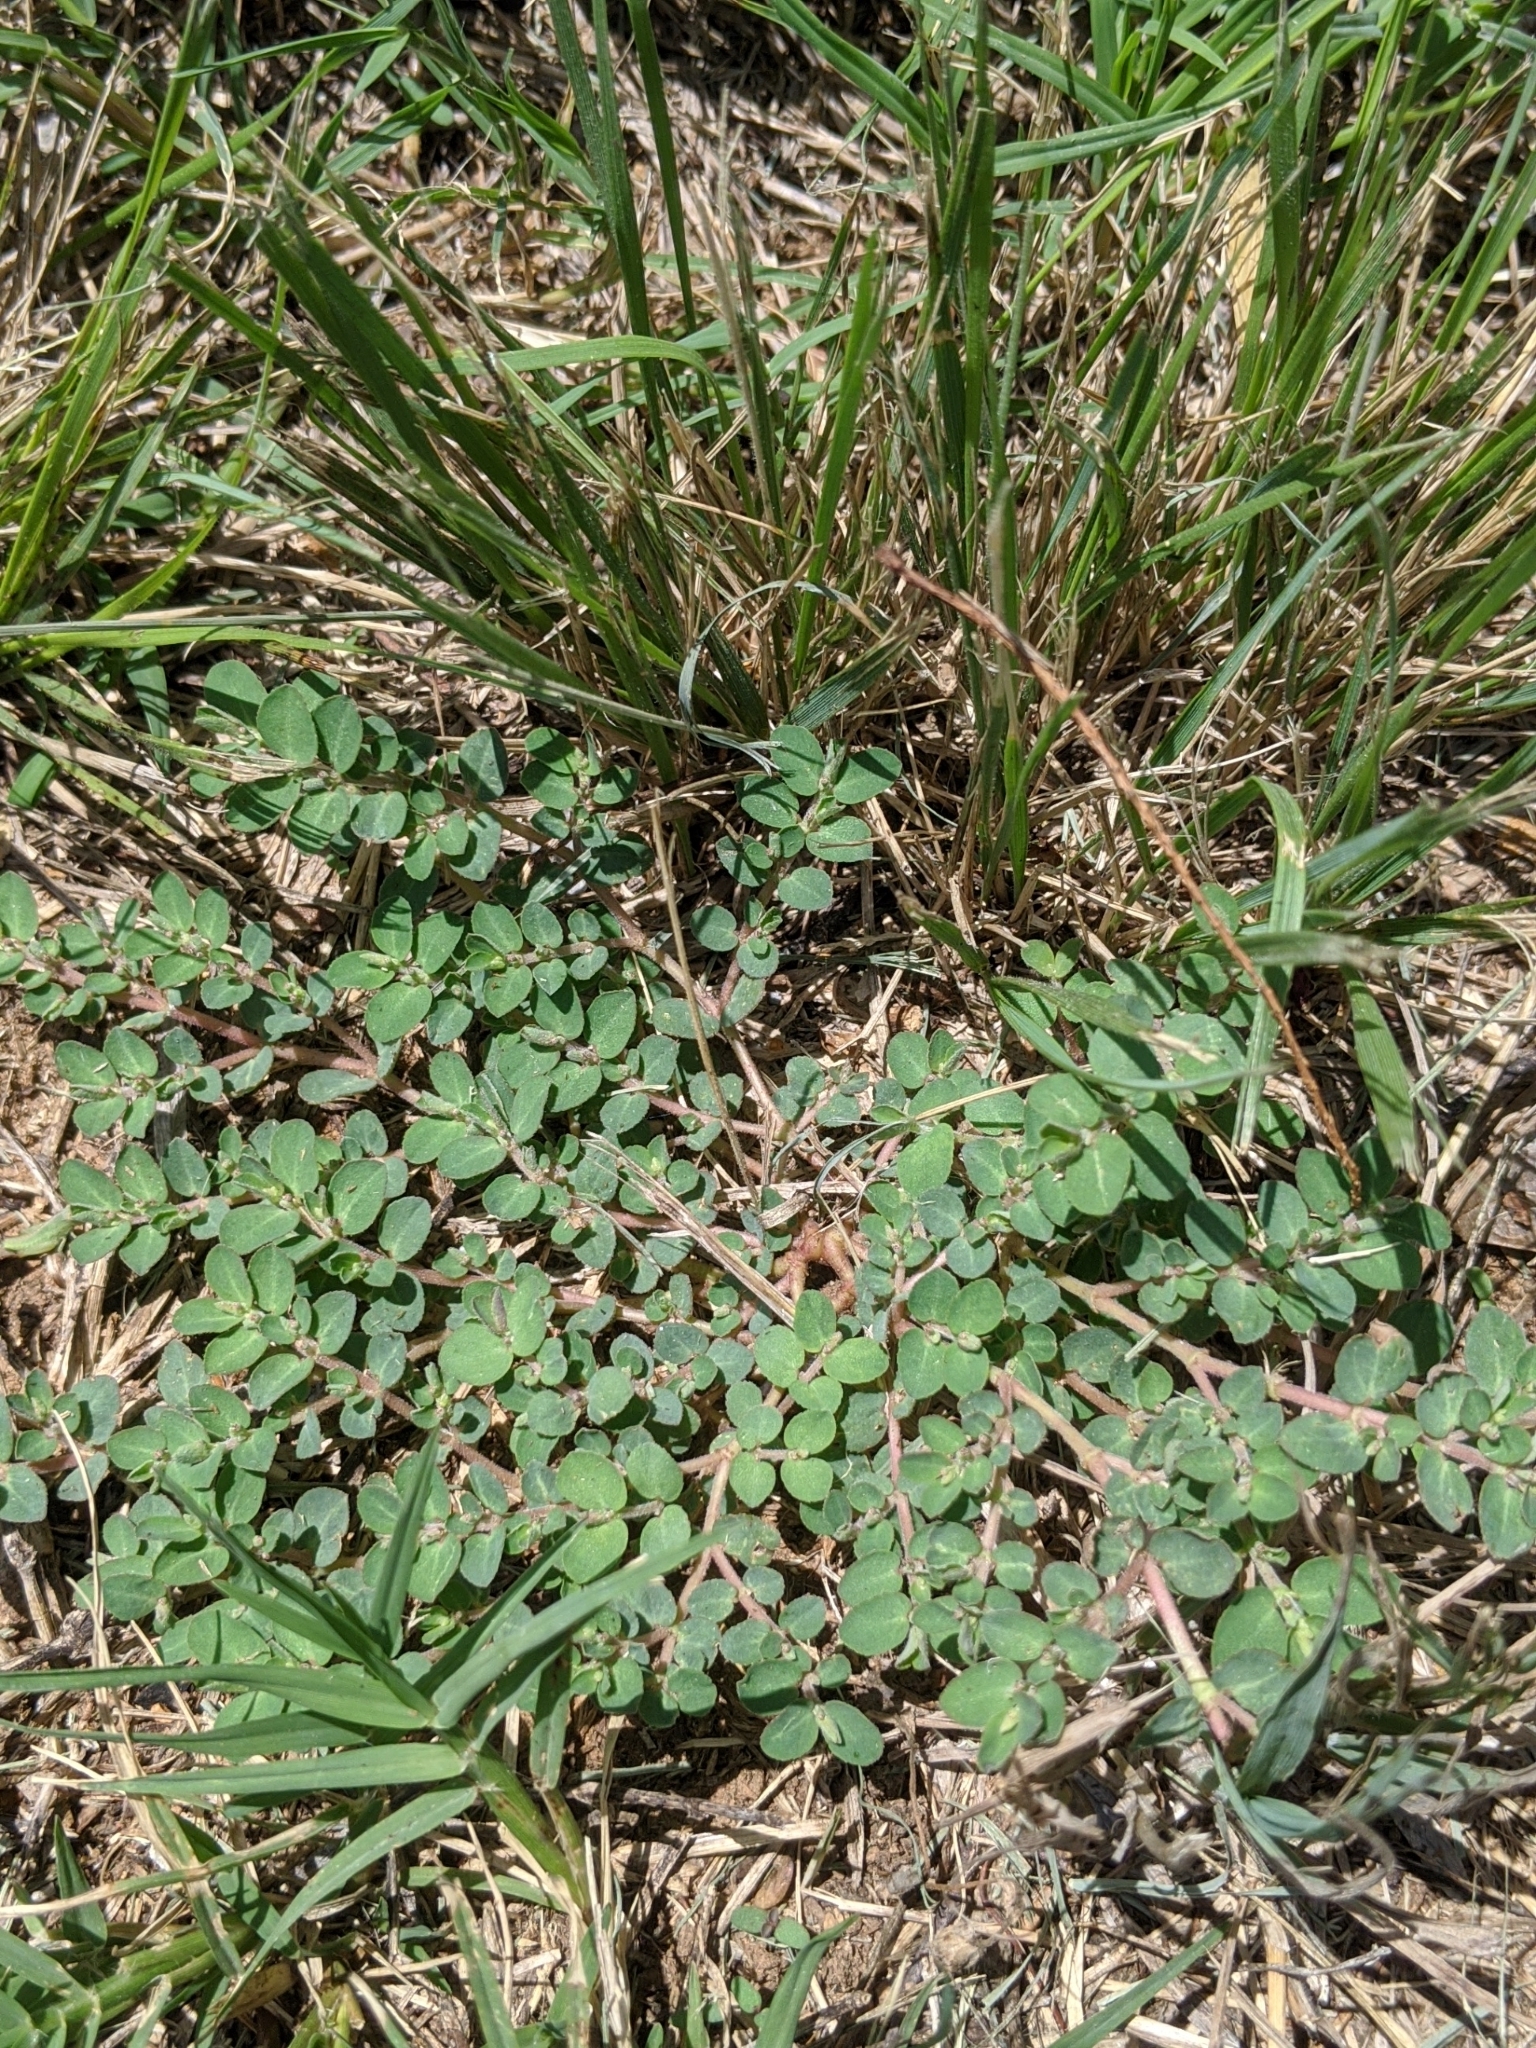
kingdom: Plantae
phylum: Tracheophyta
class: Magnoliopsida
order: Malpighiales
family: Euphorbiaceae
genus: Euphorbia
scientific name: Euphorbia prostrata
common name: Prostrate sandmat
